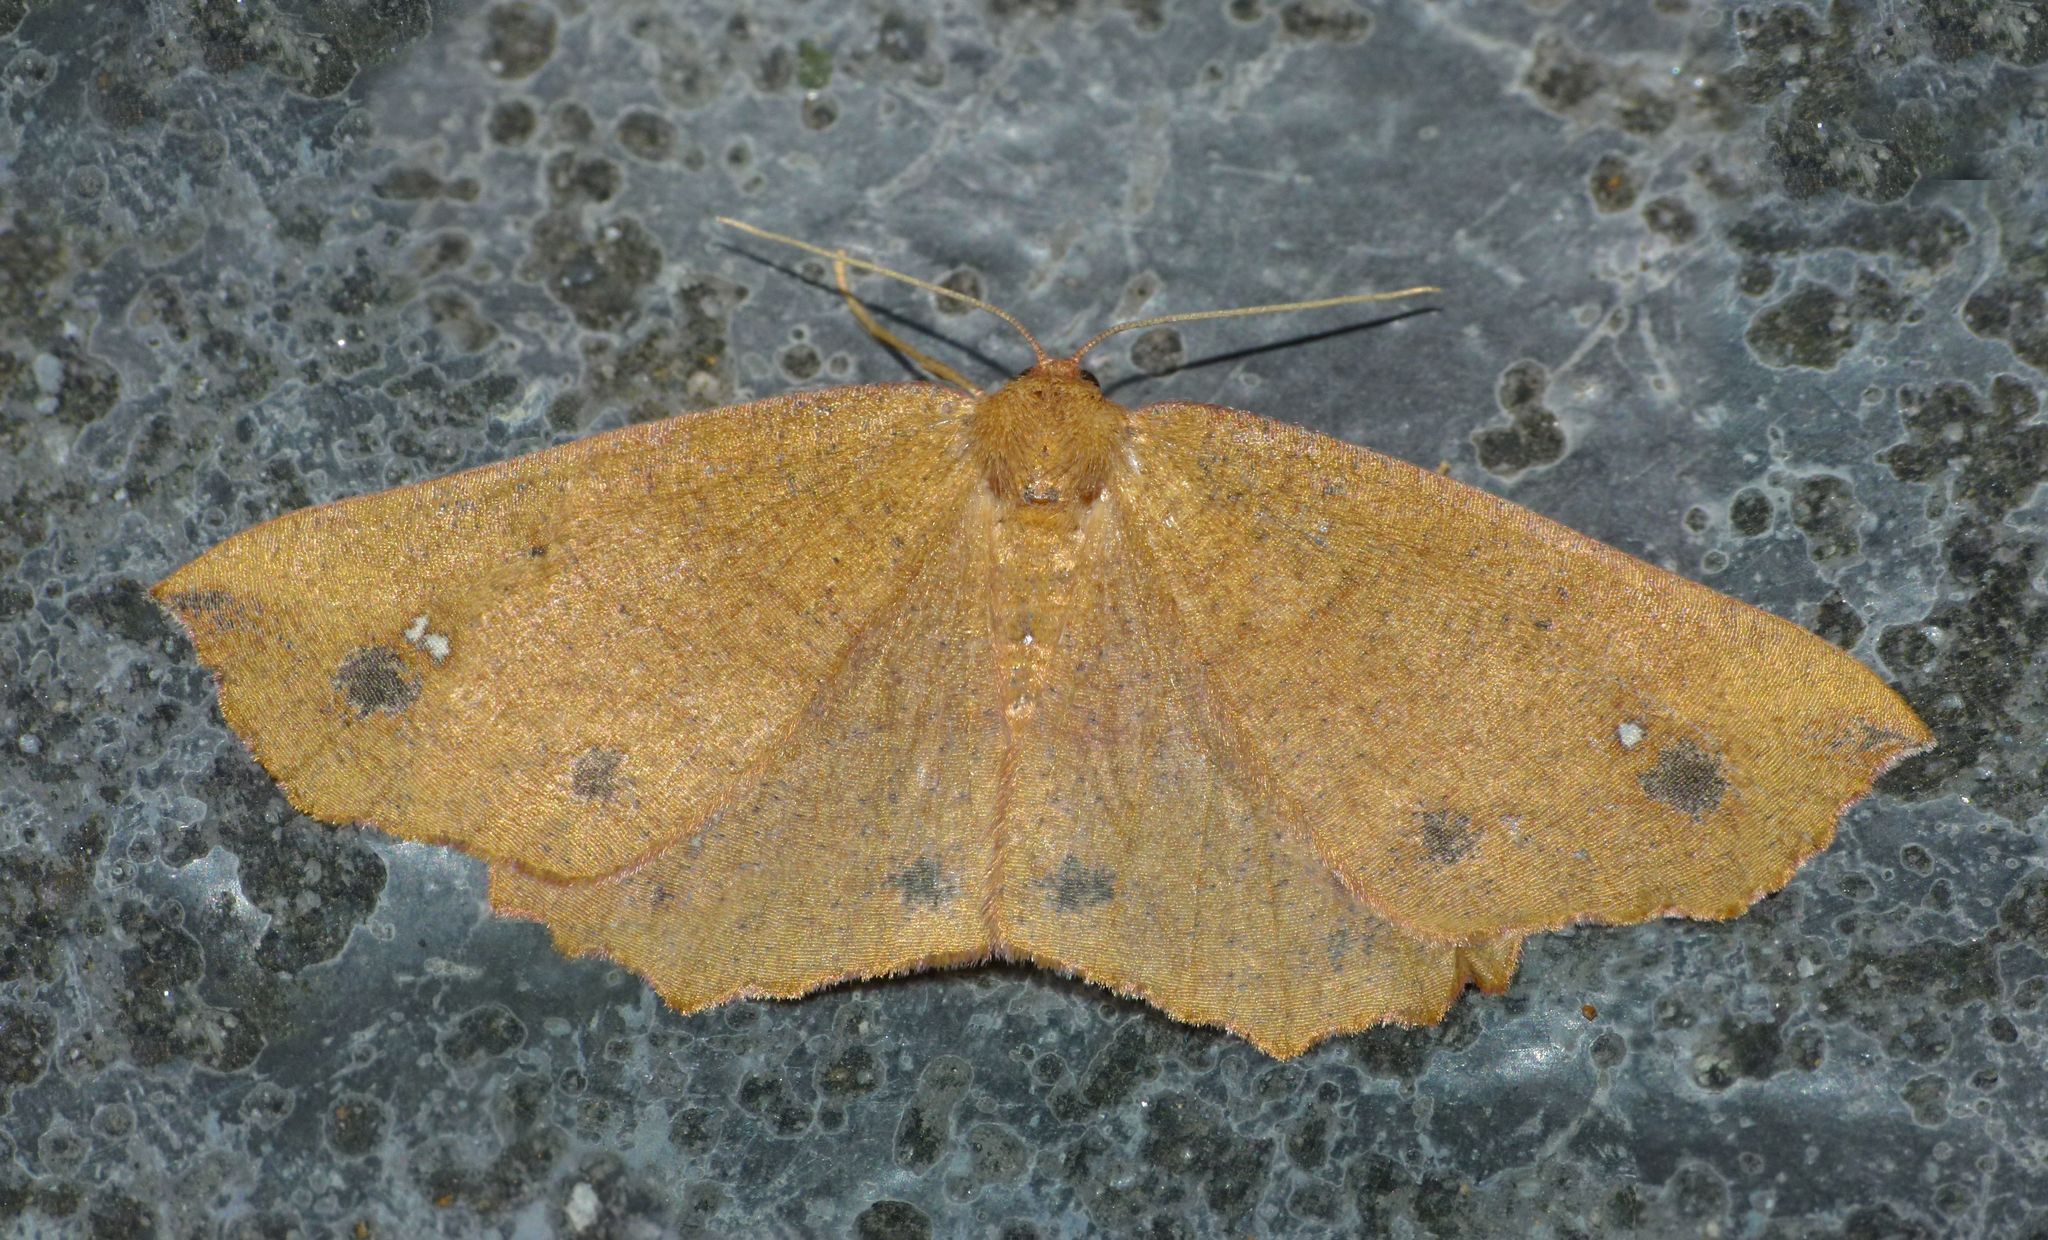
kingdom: Animalia
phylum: Arthropoda
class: Insecta
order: Lepidoptera
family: Geometridae
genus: Xyridacma
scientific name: Xyridacma ustaria
